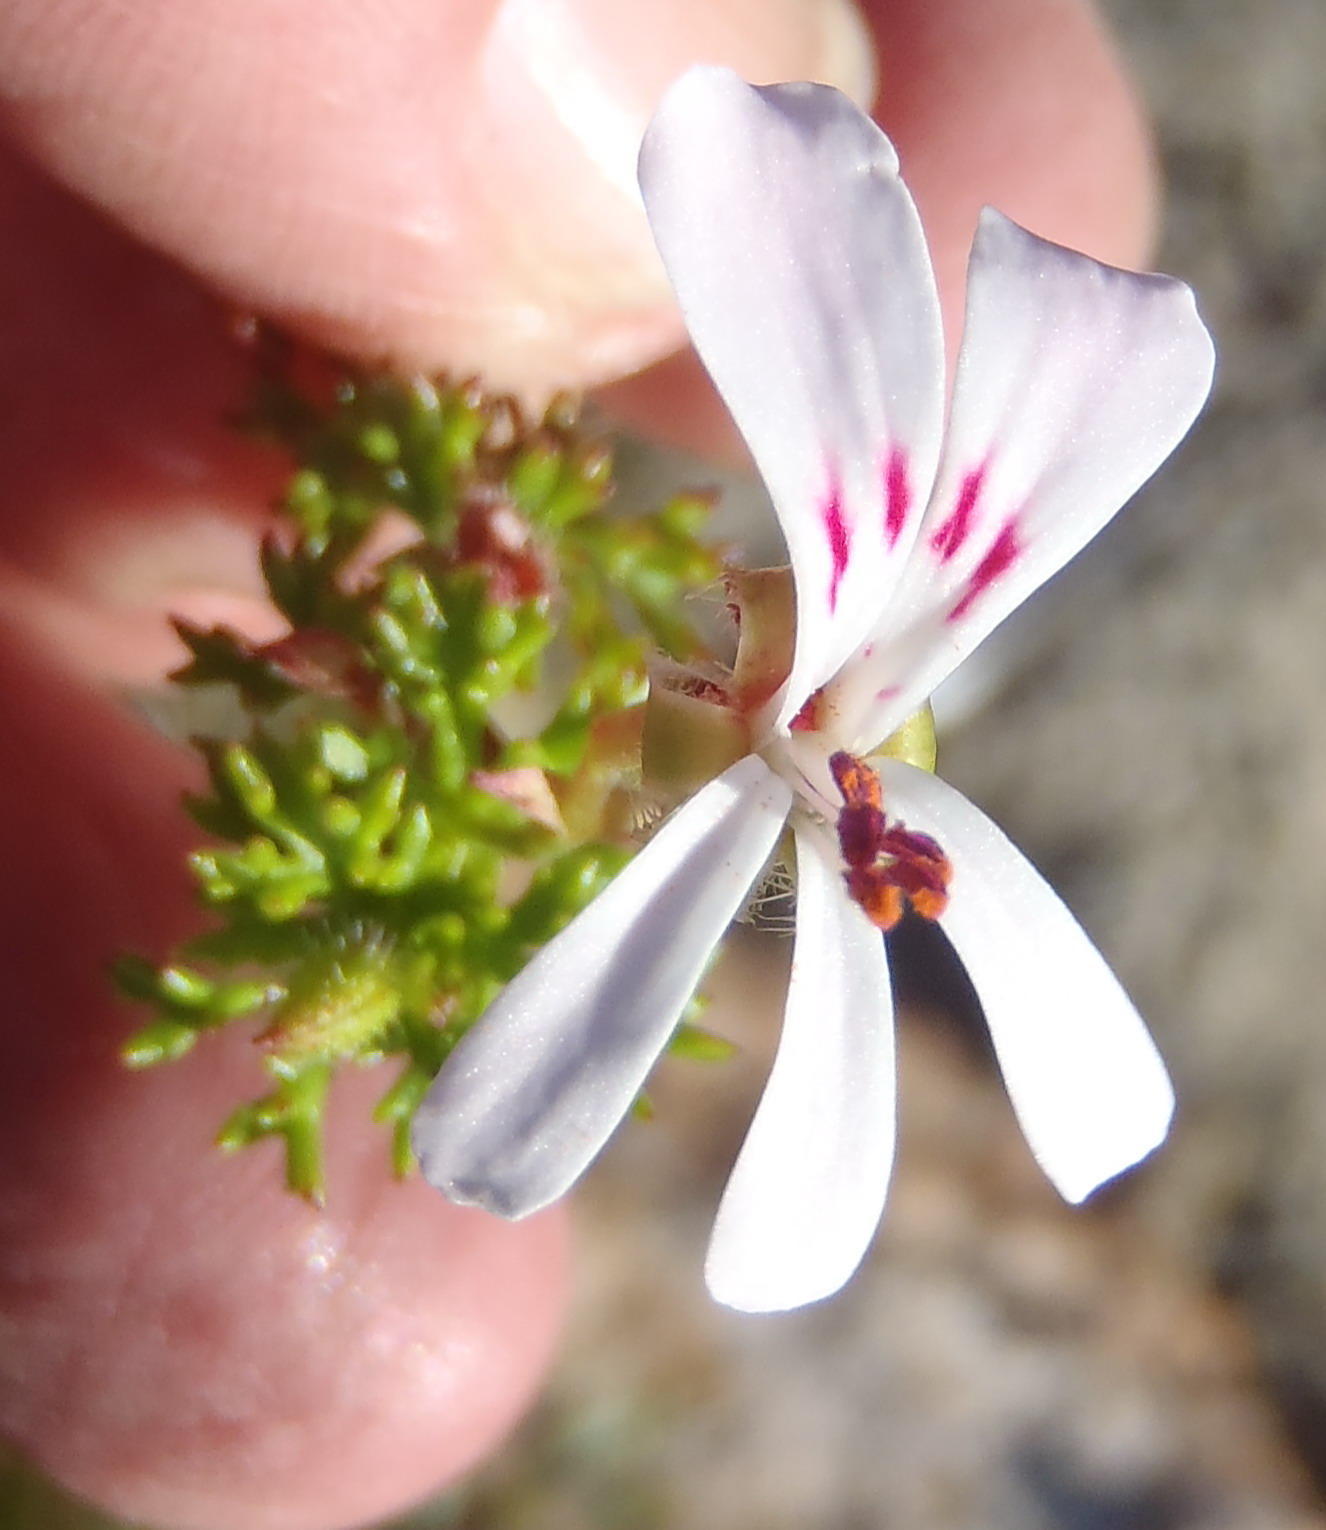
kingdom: Plantae
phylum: Tracheophyta
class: Magnoliopsida
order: Geraniales
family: Geraniaceae
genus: Pelargonium
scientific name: Pelargonium fruticosum
